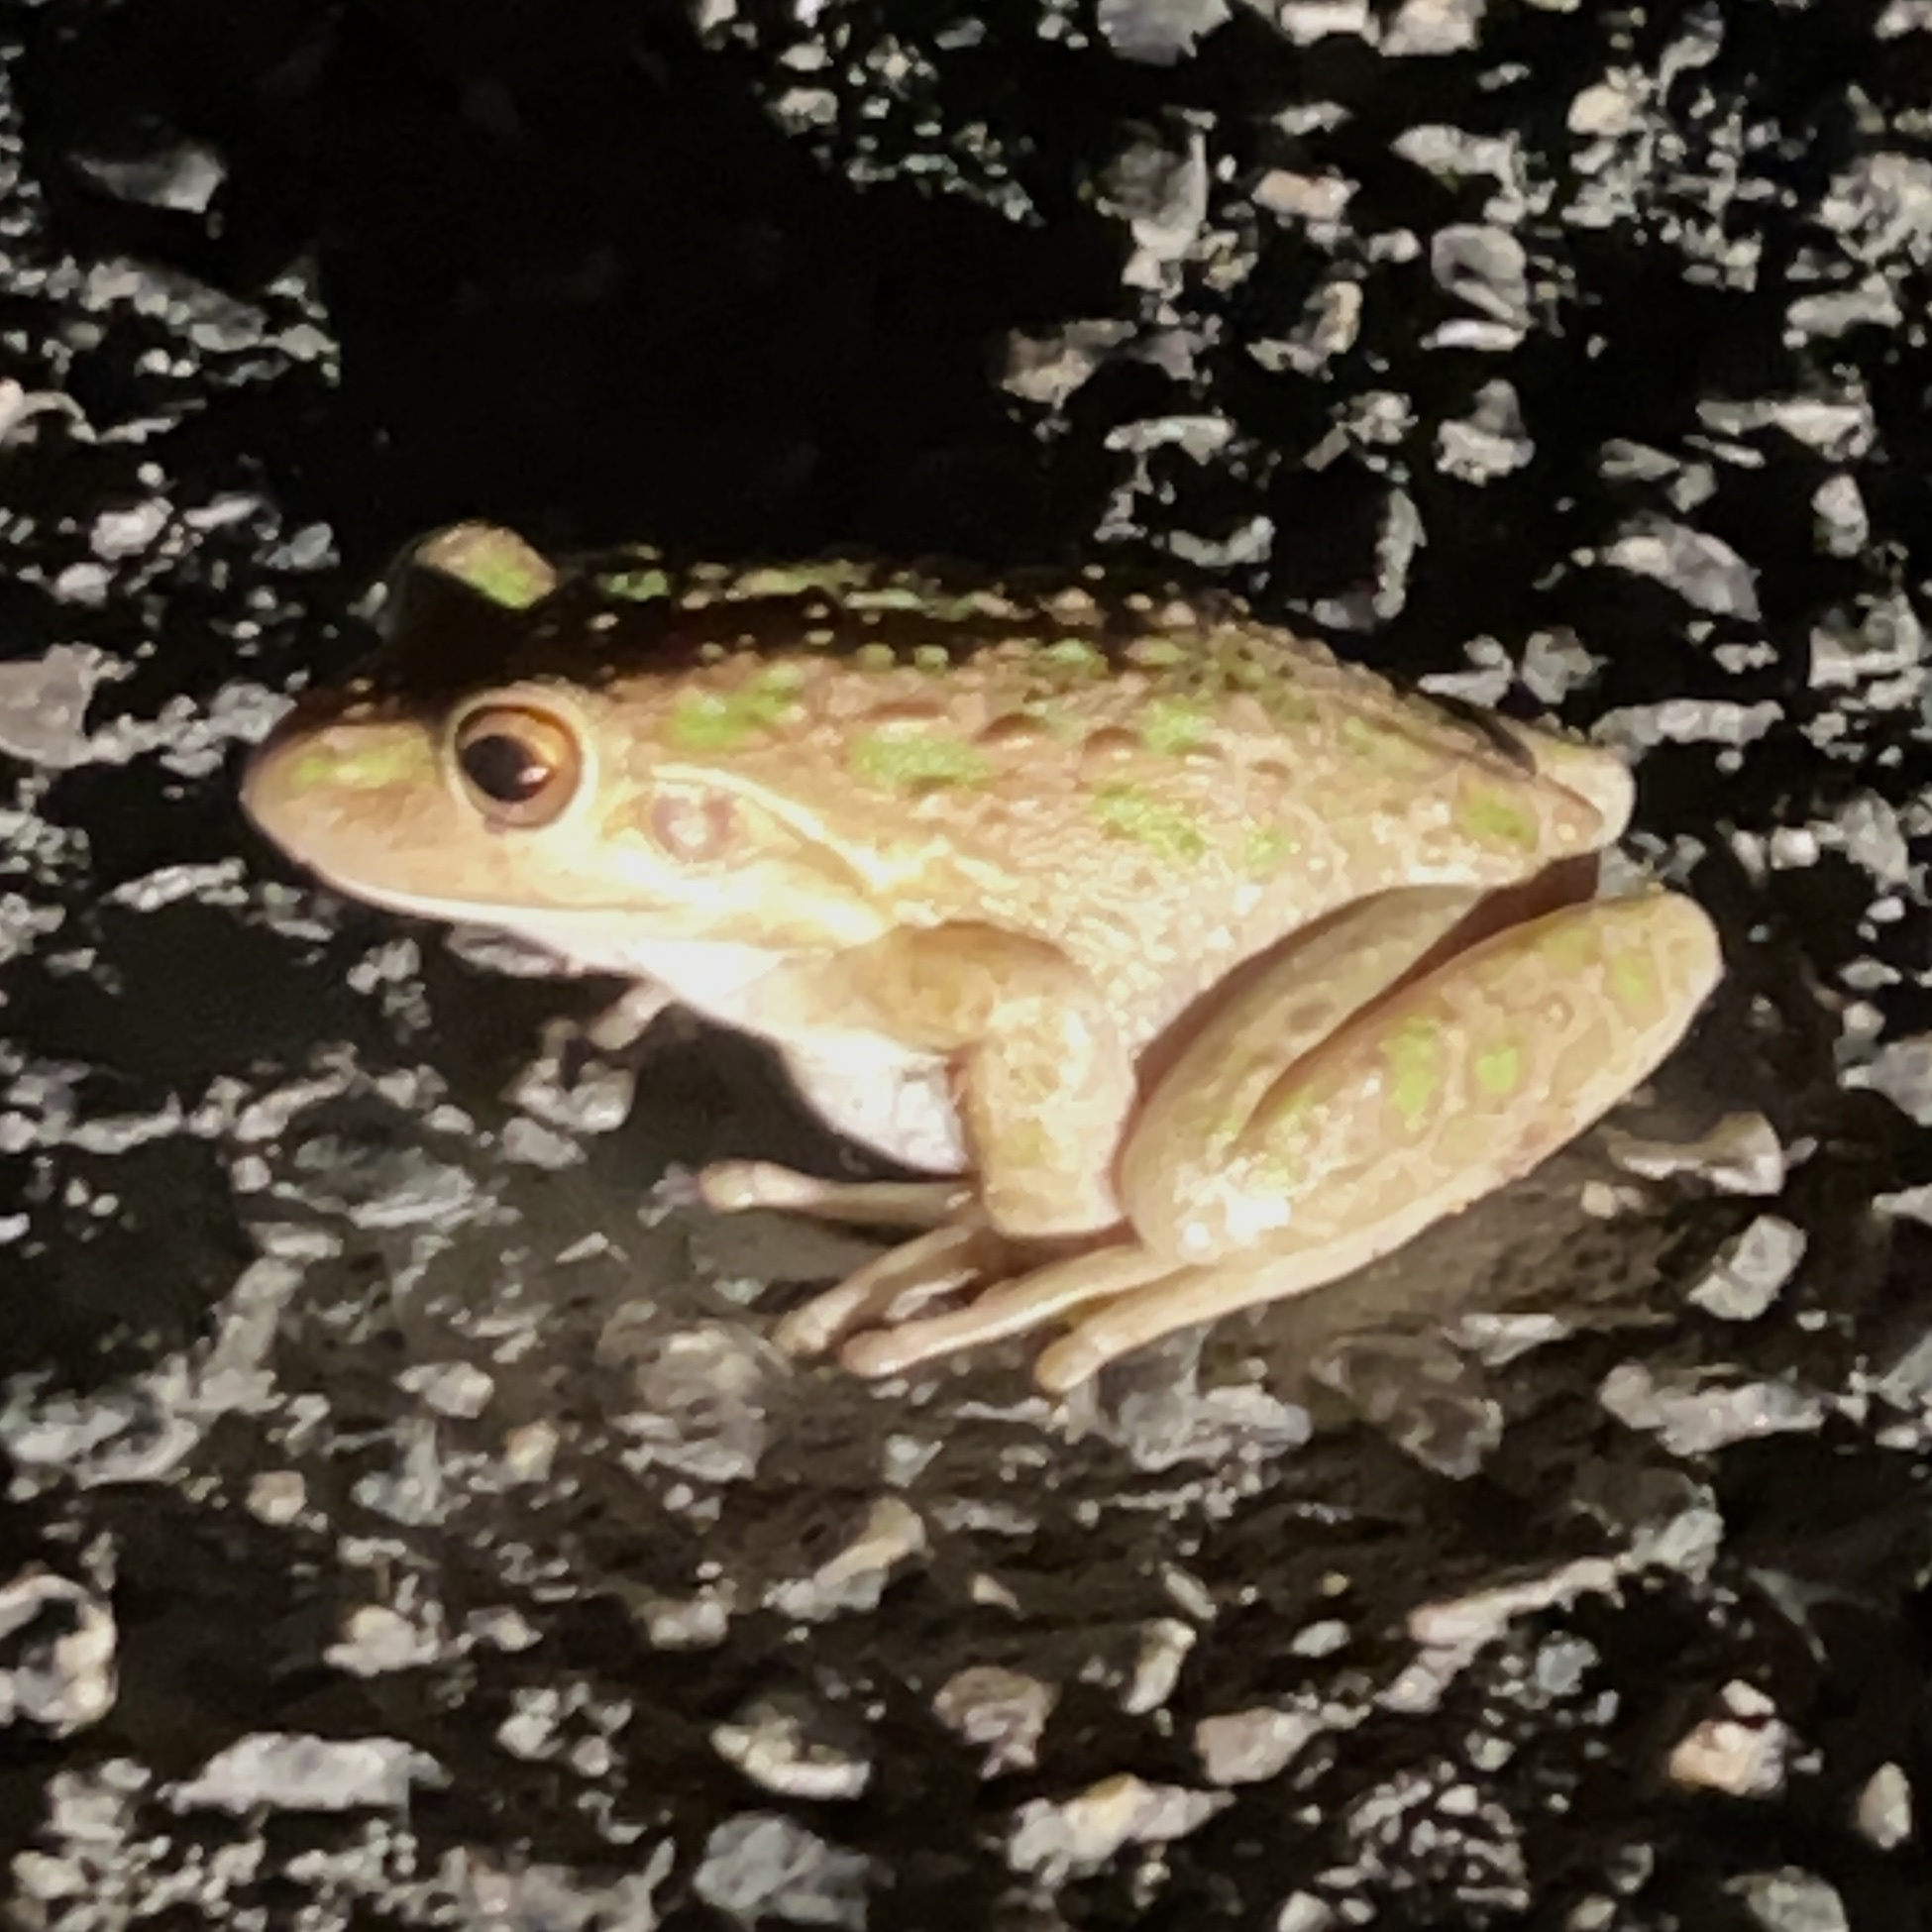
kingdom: Animalia
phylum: Chordata
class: Amphibia
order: Anura
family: Pelodryadidae
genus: Ranoidea
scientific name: Ranoidea moorei
